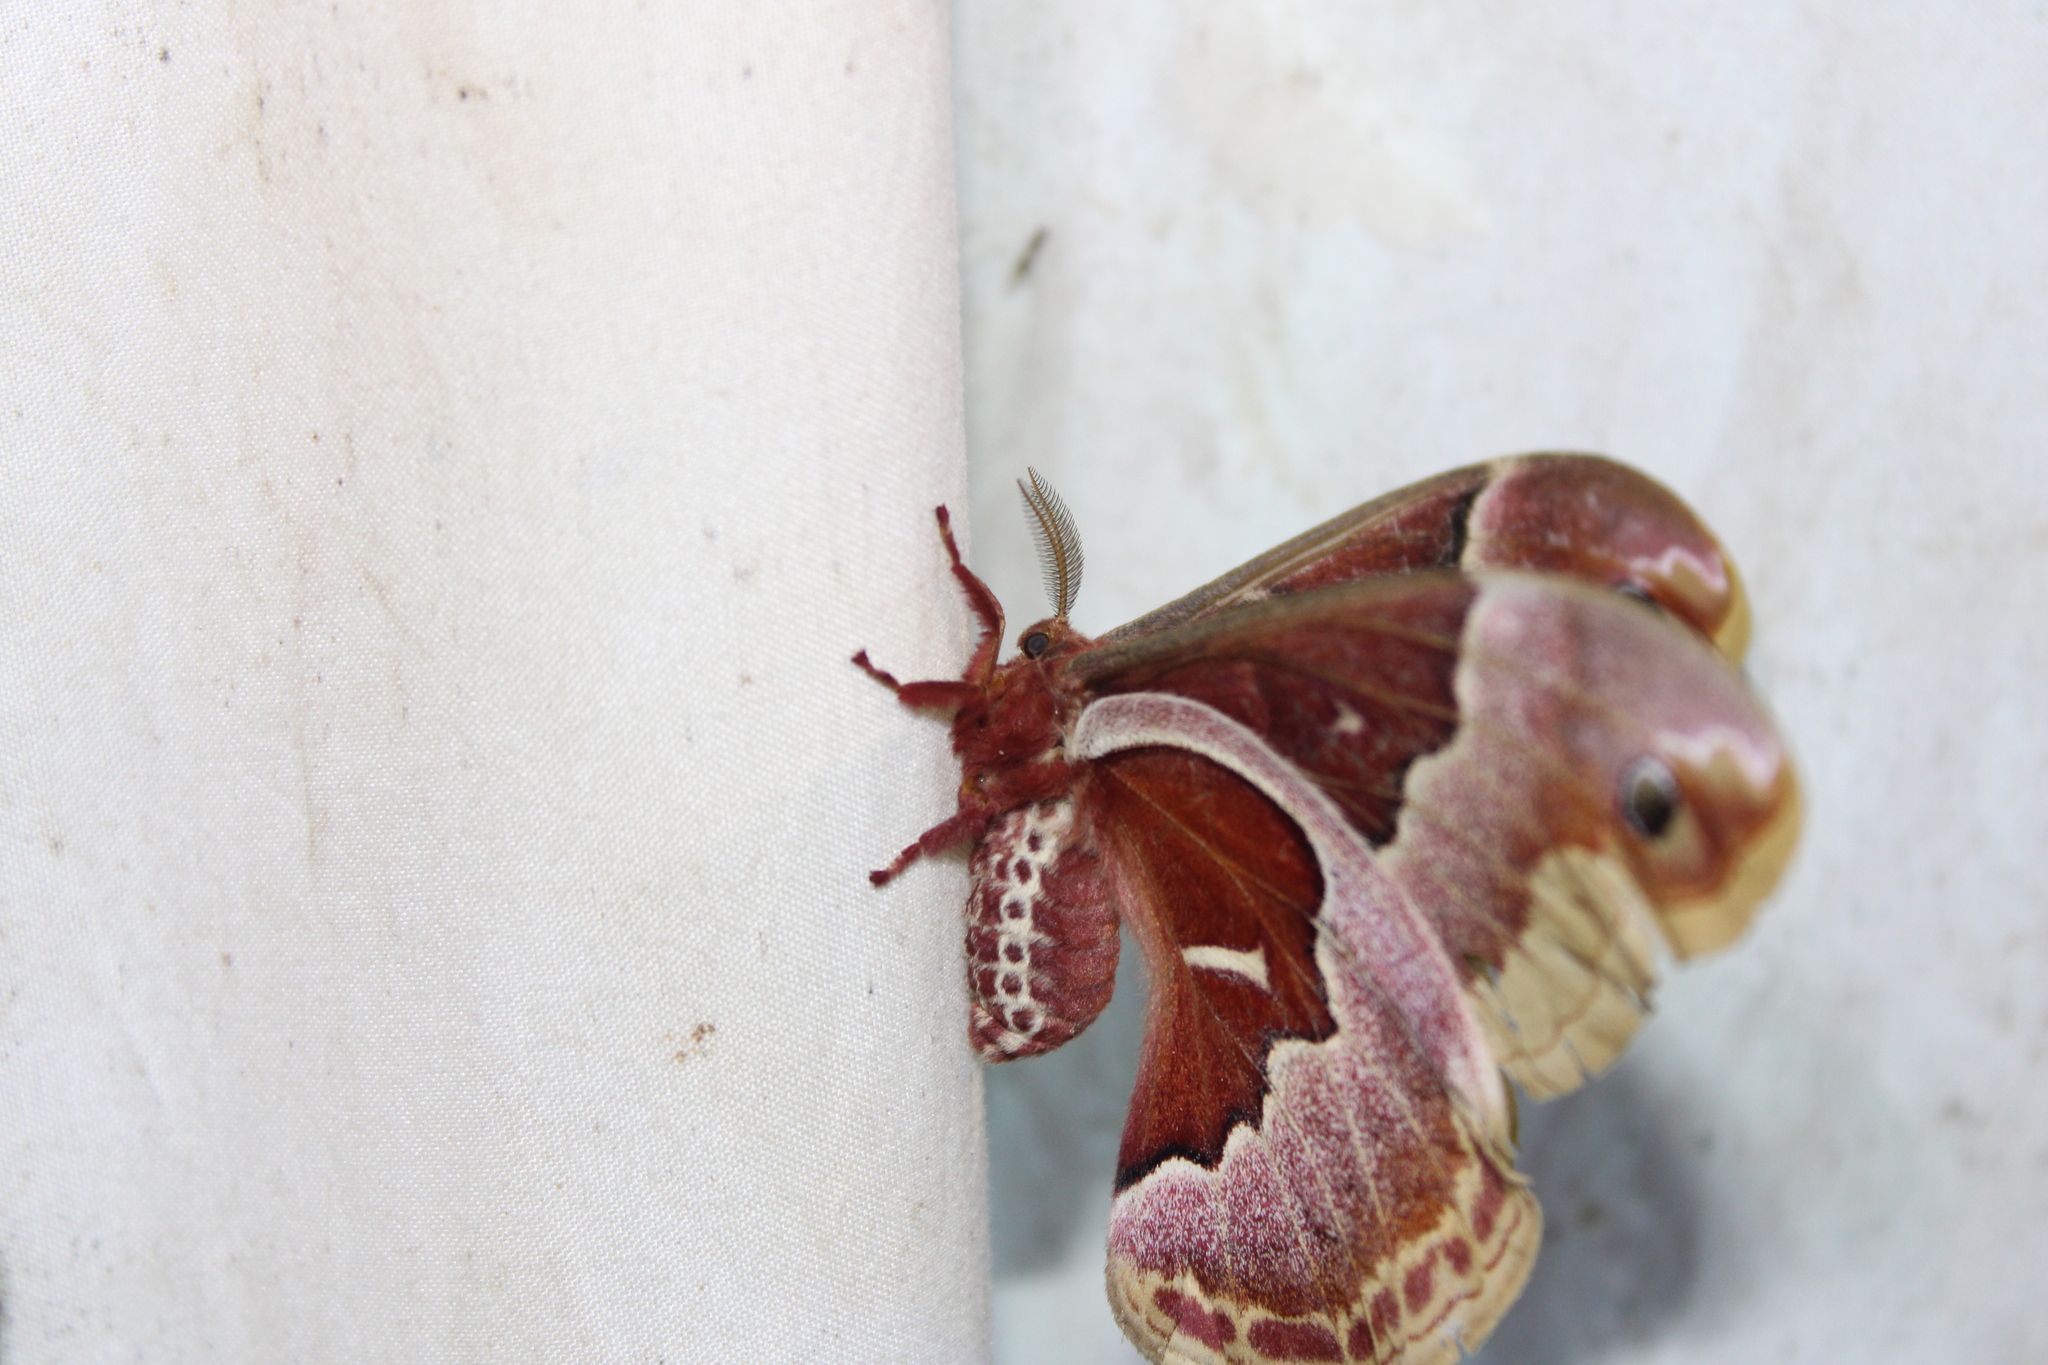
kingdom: Animalia
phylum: Arthropoda
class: Insecta
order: Lepidoptera
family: Saturniidae
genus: Callosamia
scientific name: Callosamia promethea
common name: Promethea silkmoth
